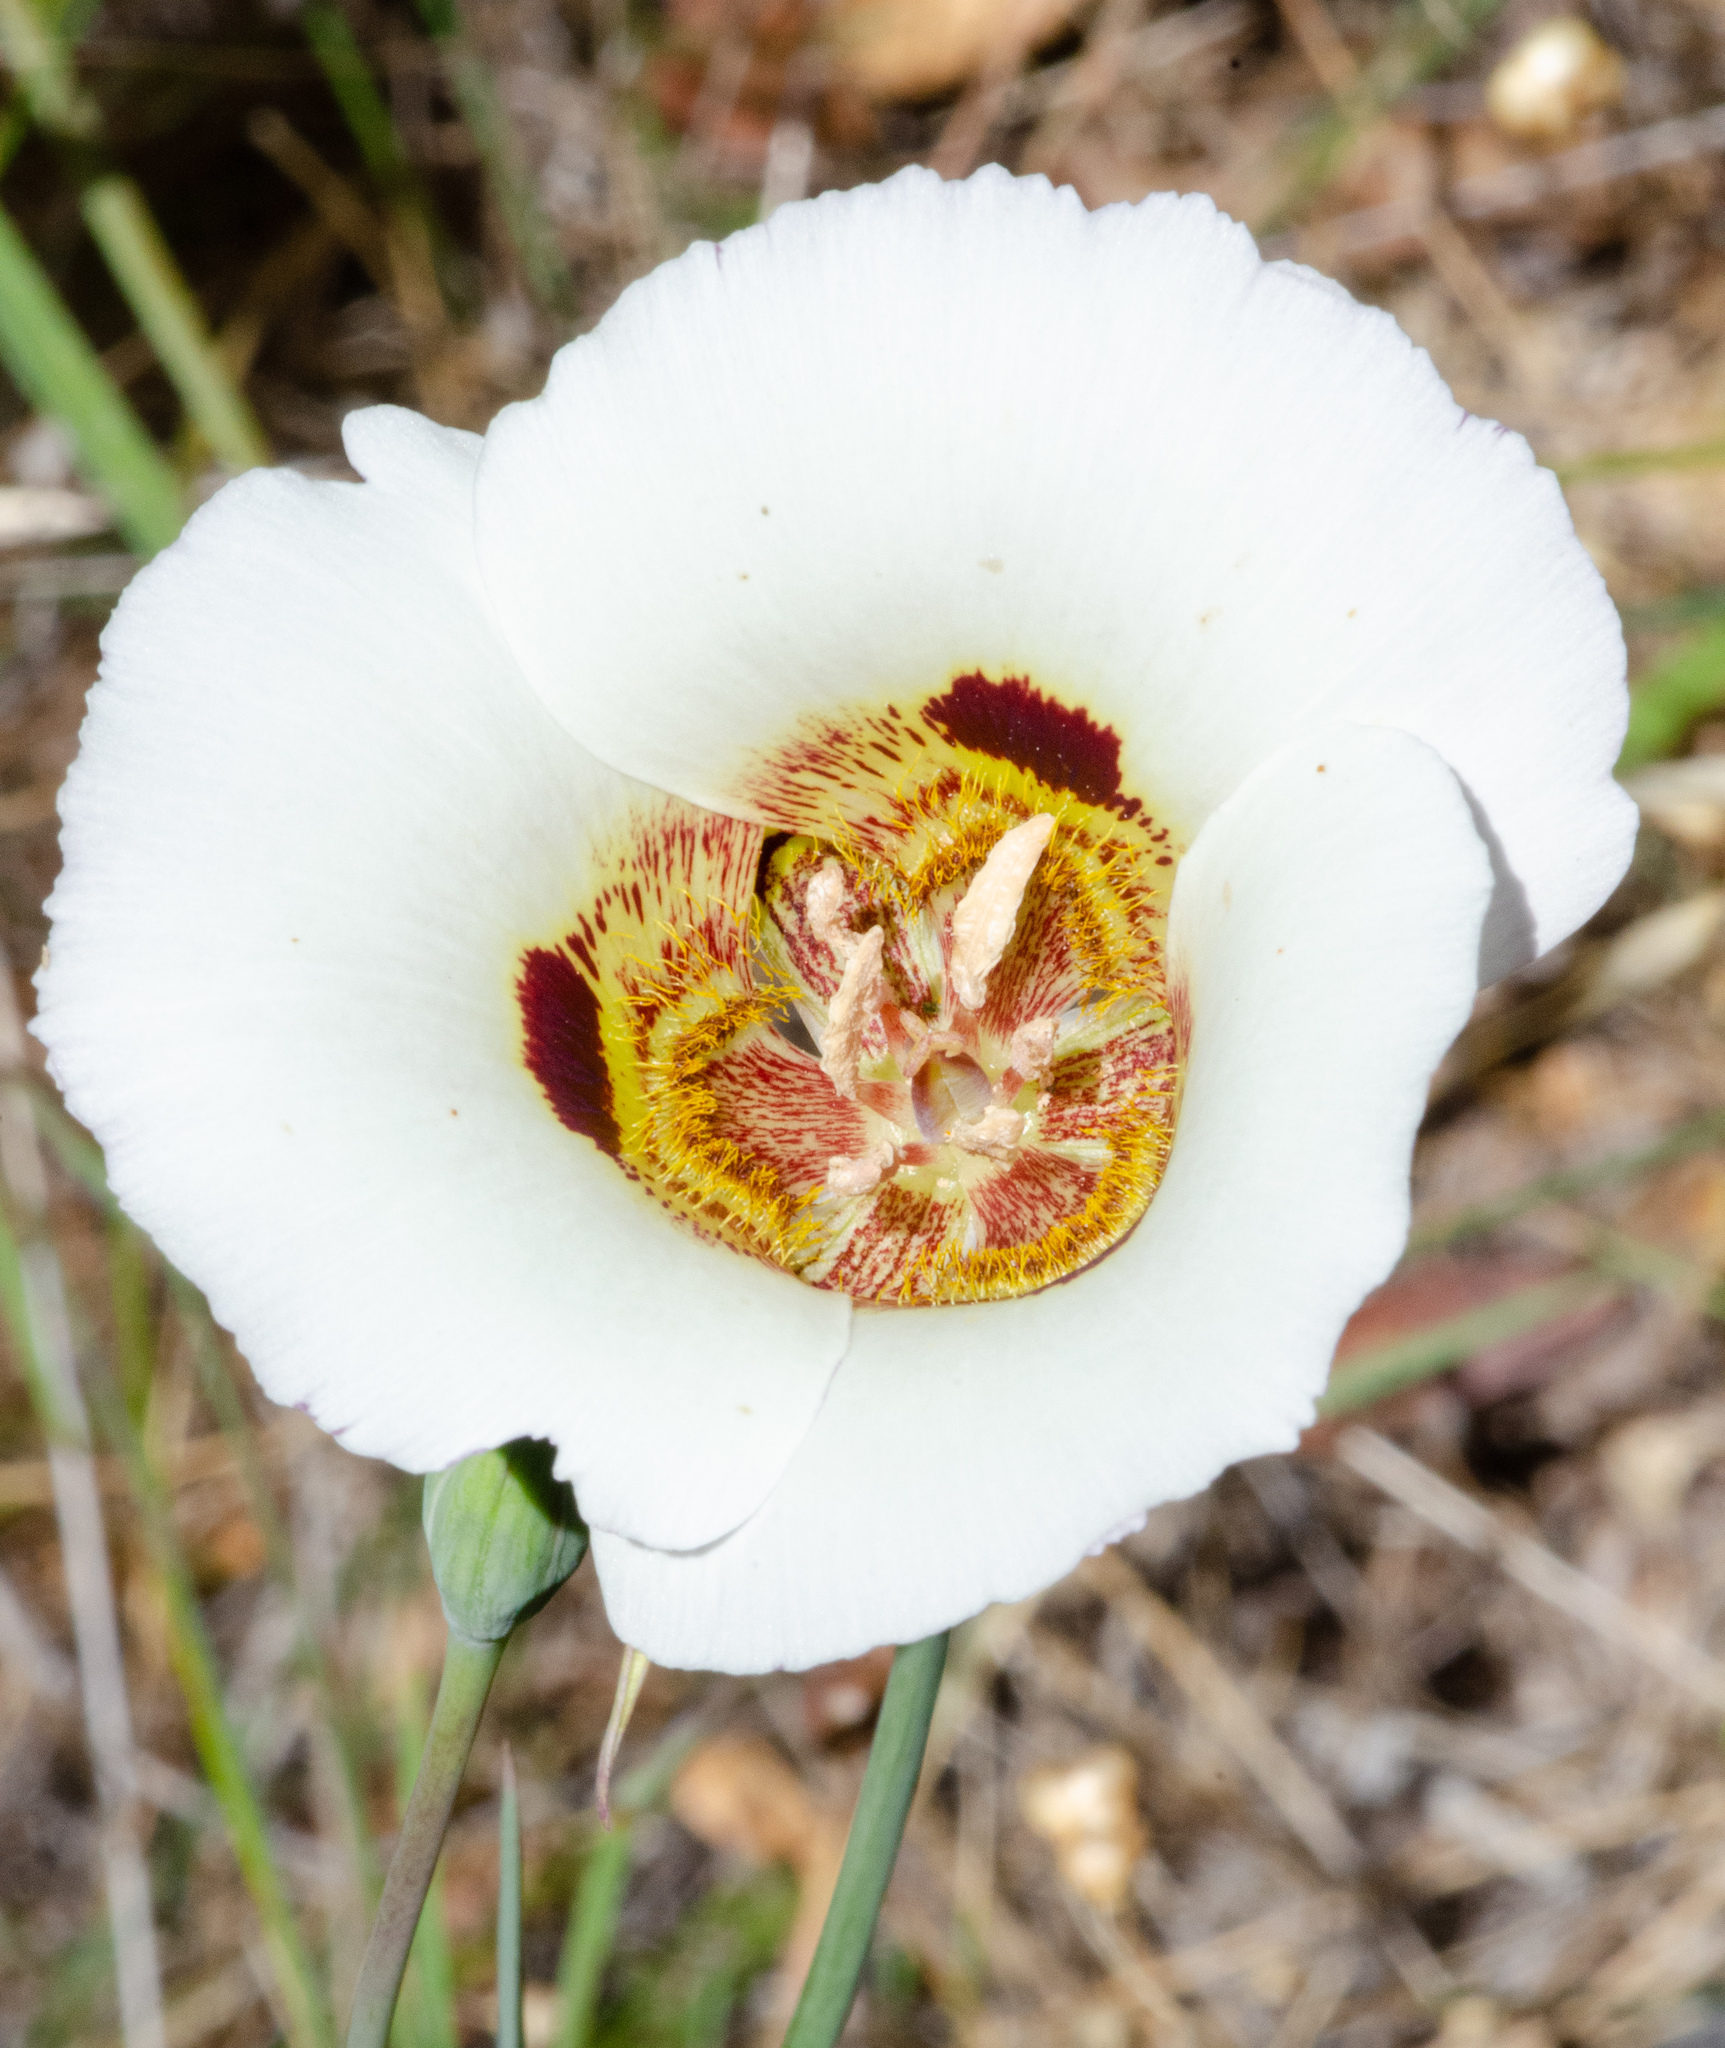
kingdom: Plantae
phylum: Tracheophyta
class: Liliopsida
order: Liliales
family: Liliaceae
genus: Calochortus
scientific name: Calochortus vestae
